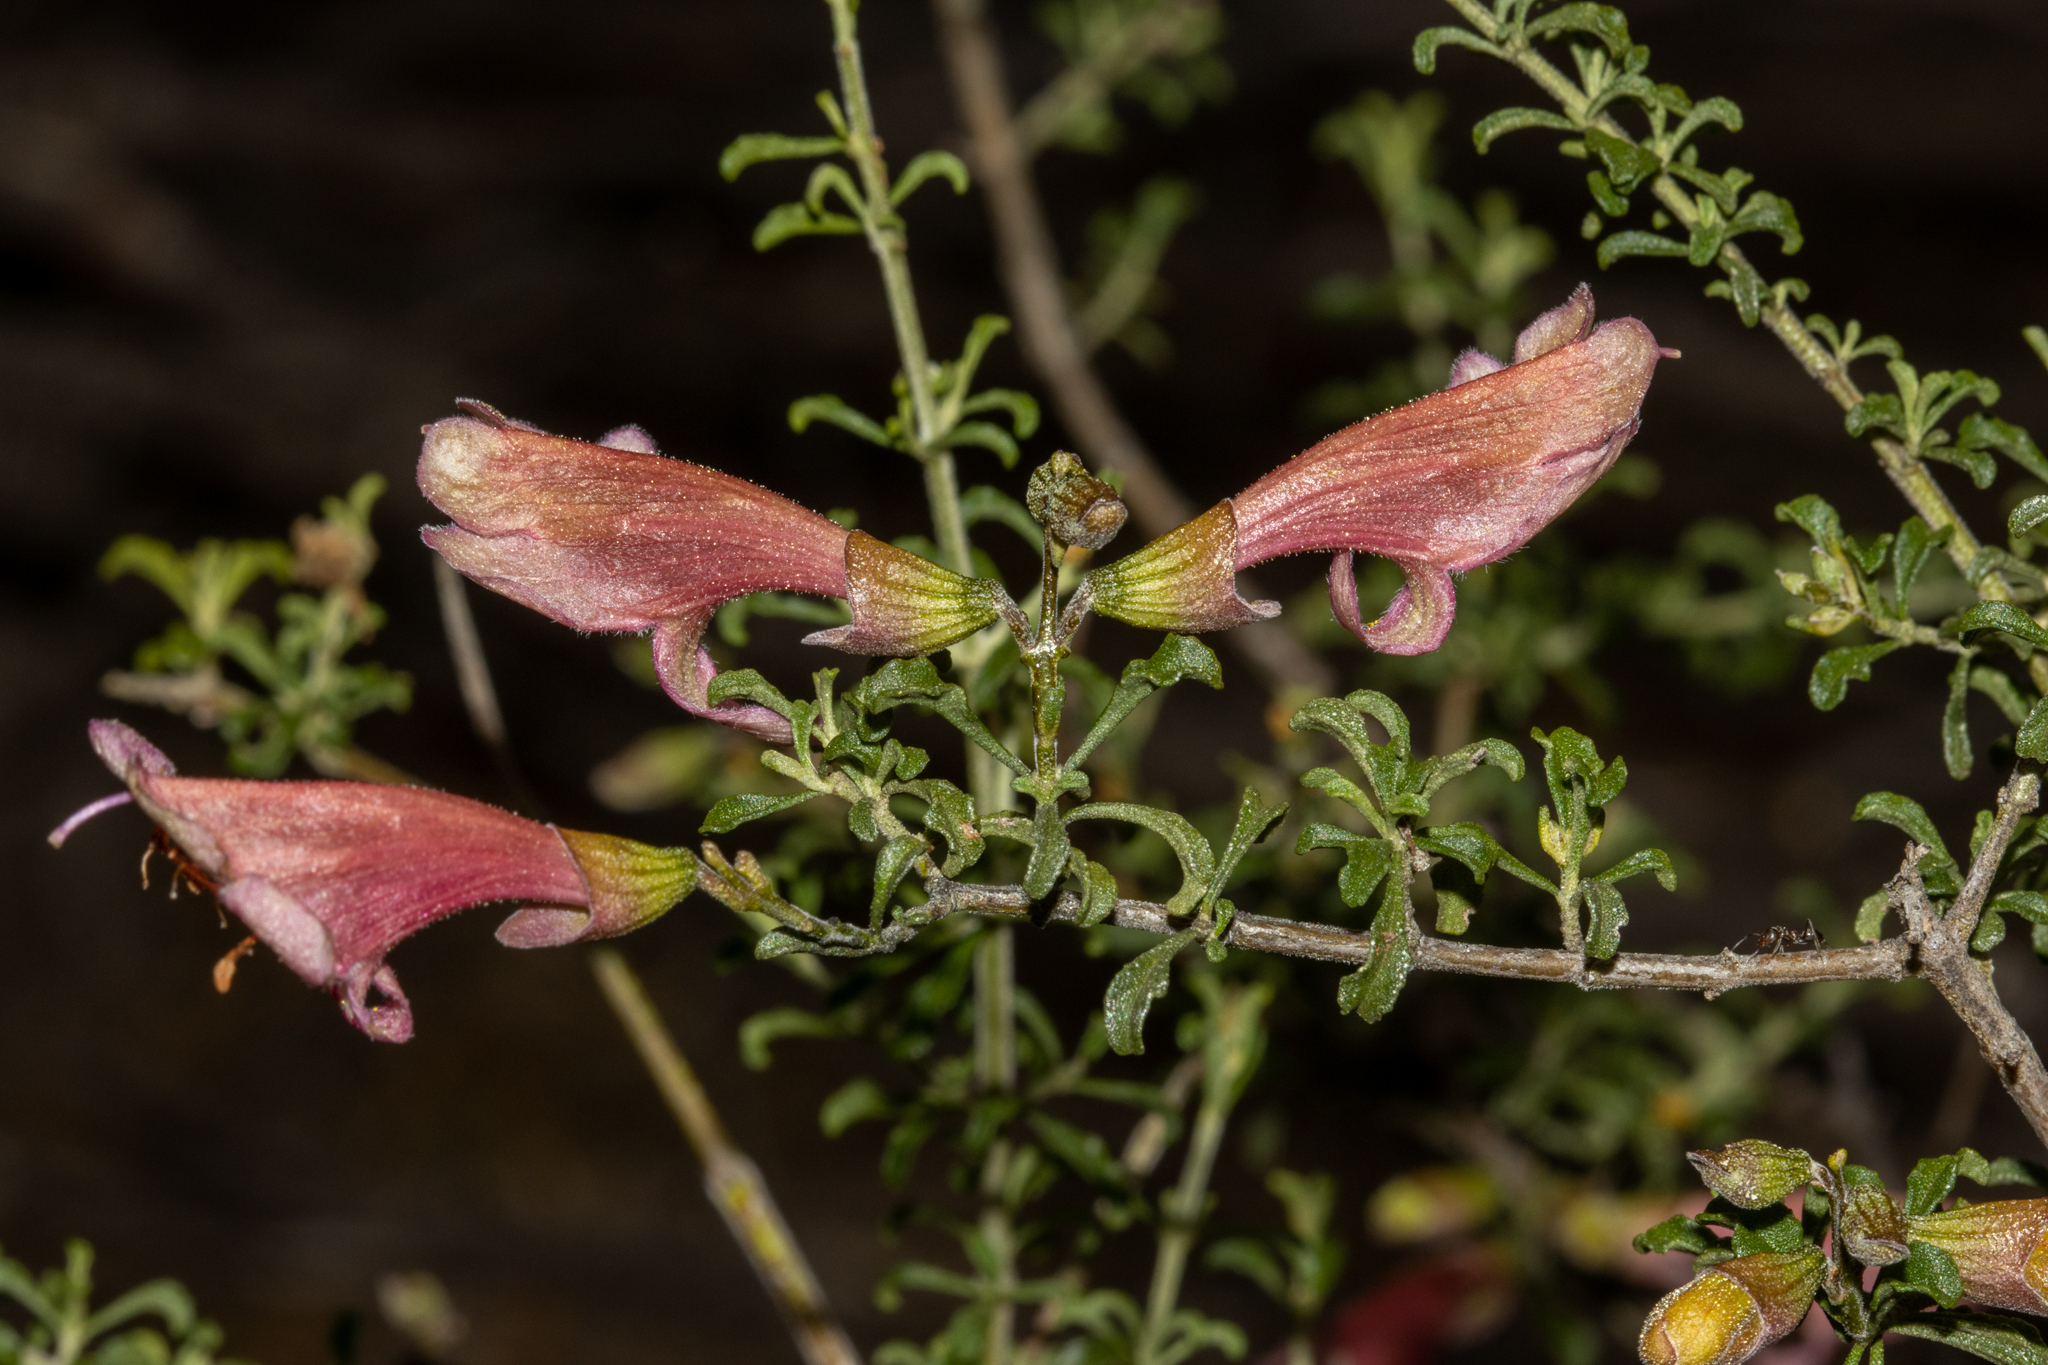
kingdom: Plantae
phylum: Tracheophyta
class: Magnoliopsida
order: Lamiales
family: Lamiaceae
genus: Prostanthera
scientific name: Prostanthera grylloana
